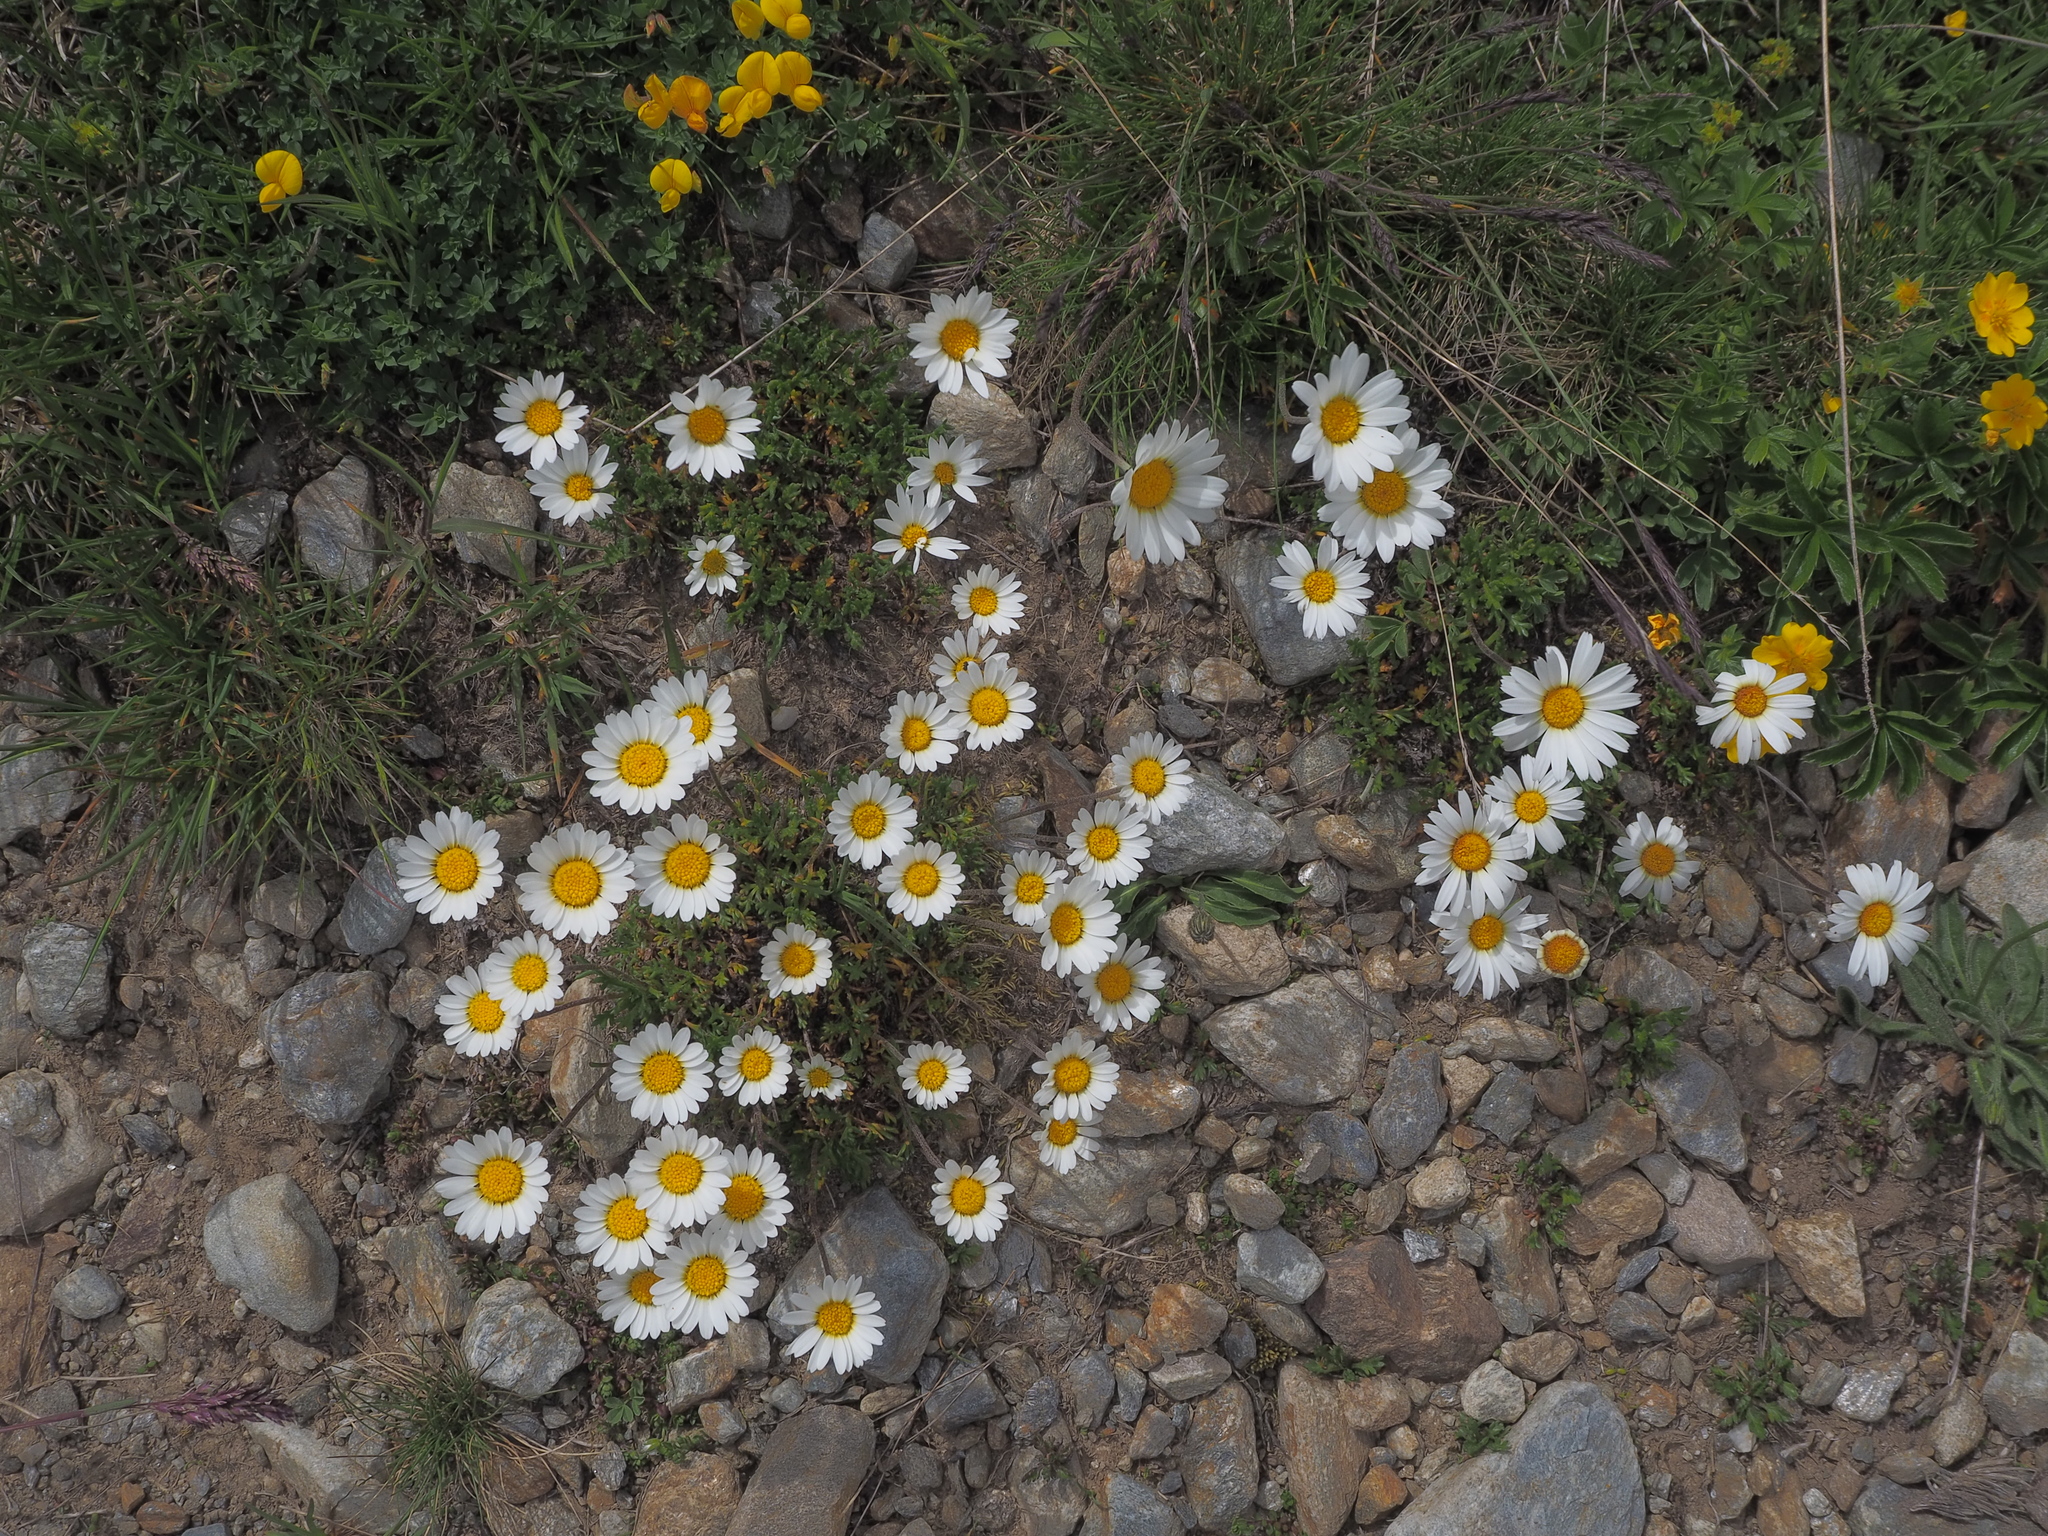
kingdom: Plantae
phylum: Tracheophyta
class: Magnoliopsida
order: Asterales
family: Asteraceae
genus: Leucanthemopsis
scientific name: Leucanthemopsis alpina
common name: Alpine moon daisy
